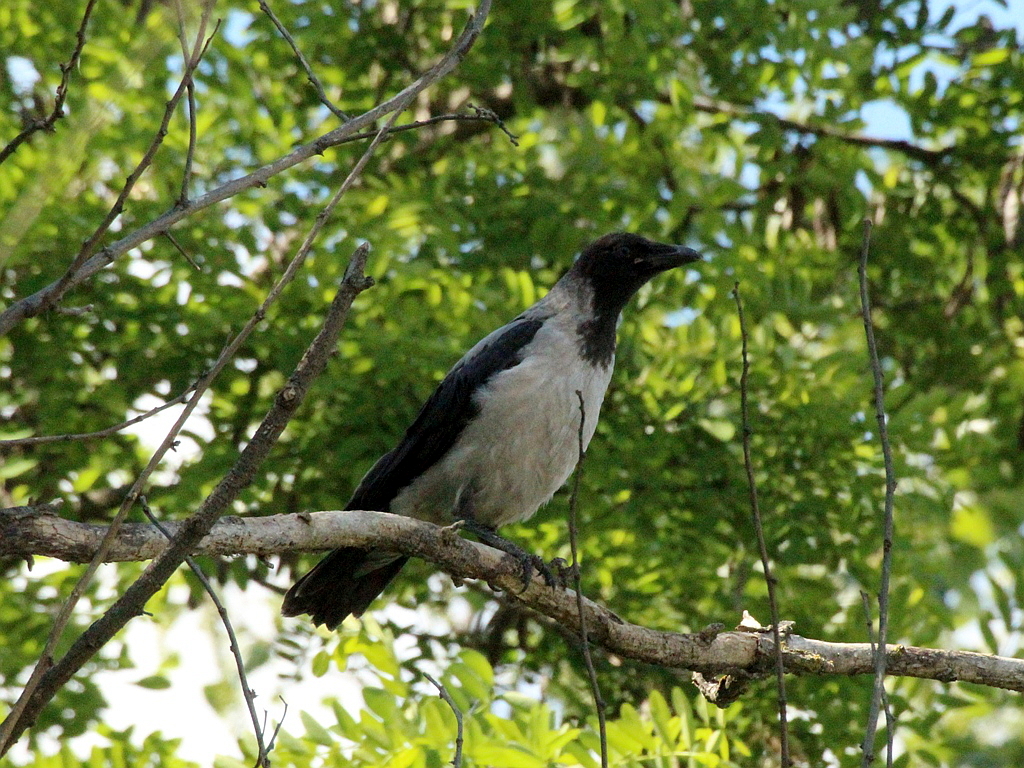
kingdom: Animalia
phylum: Chordata
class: Aves
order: Passeriformes
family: Corvidae
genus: Corvus
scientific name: Corvus cornix
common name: Hooded crow
